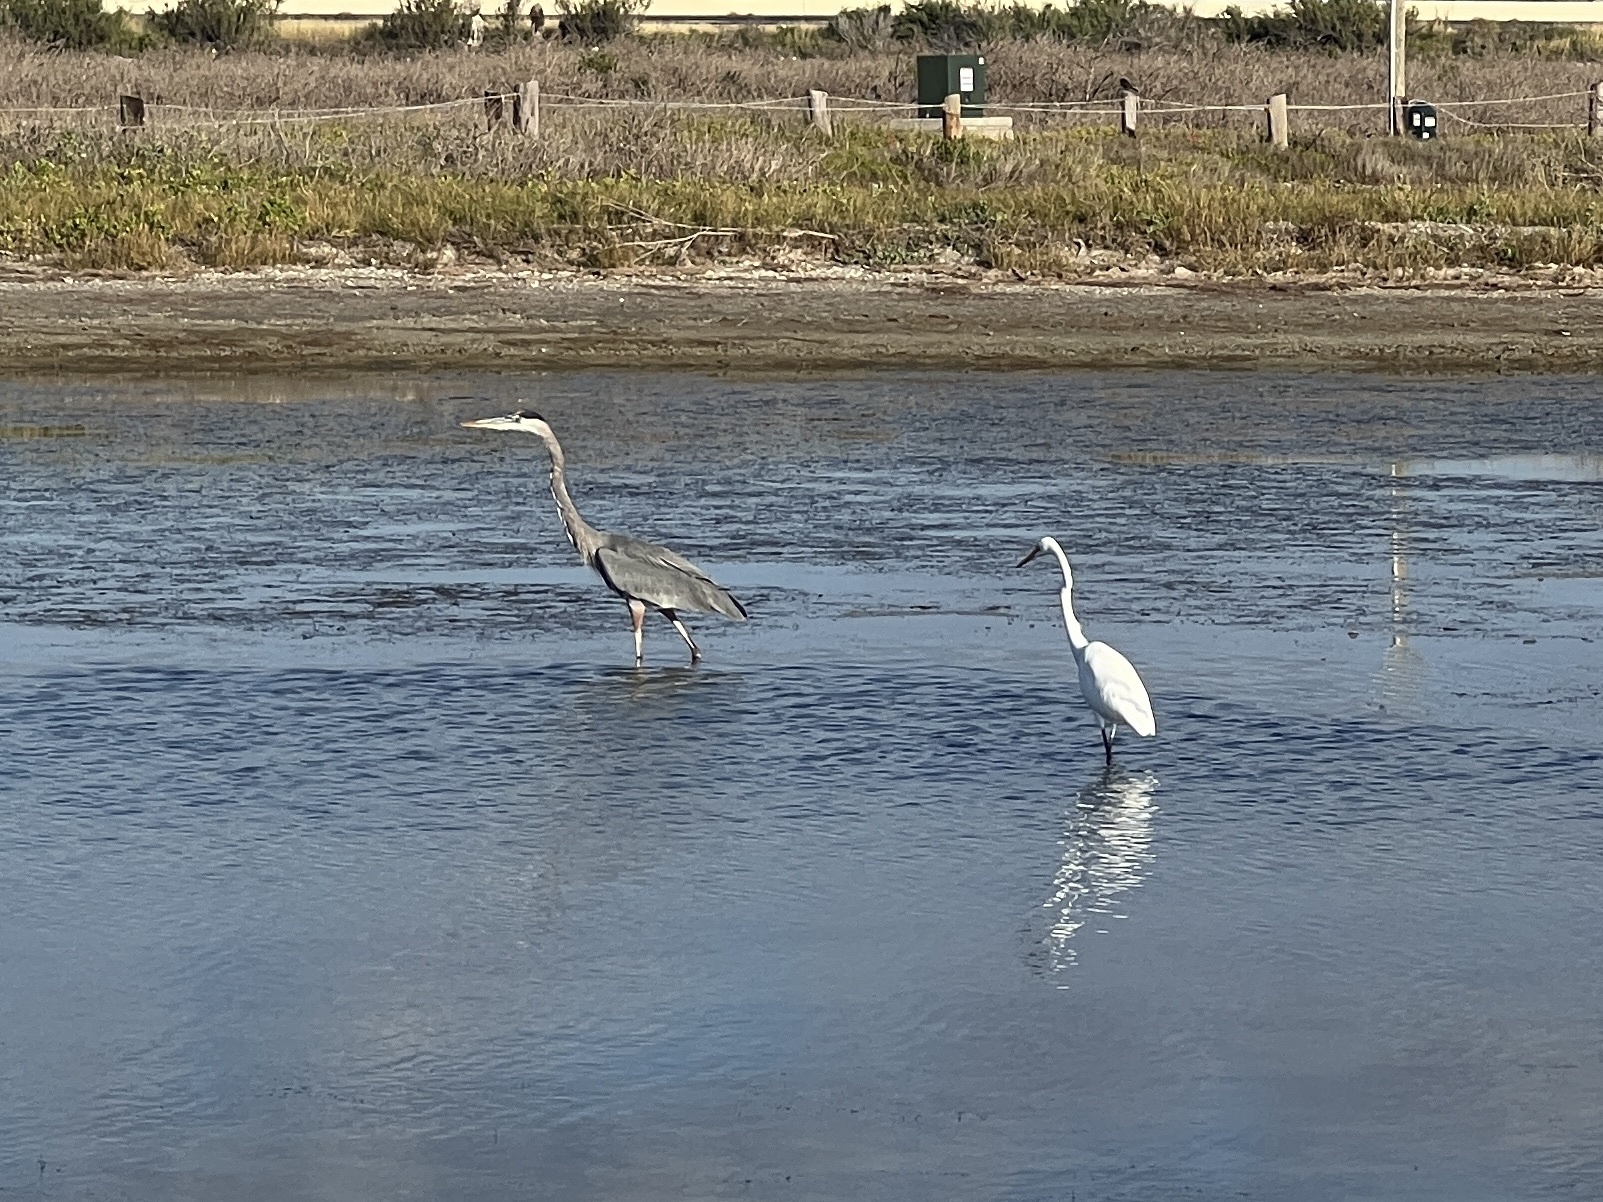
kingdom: Animalia
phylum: Chordata
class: Aves
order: Pelecaniformes
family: Ardeidae
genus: Ardea
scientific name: Ardea alba
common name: Great egret
